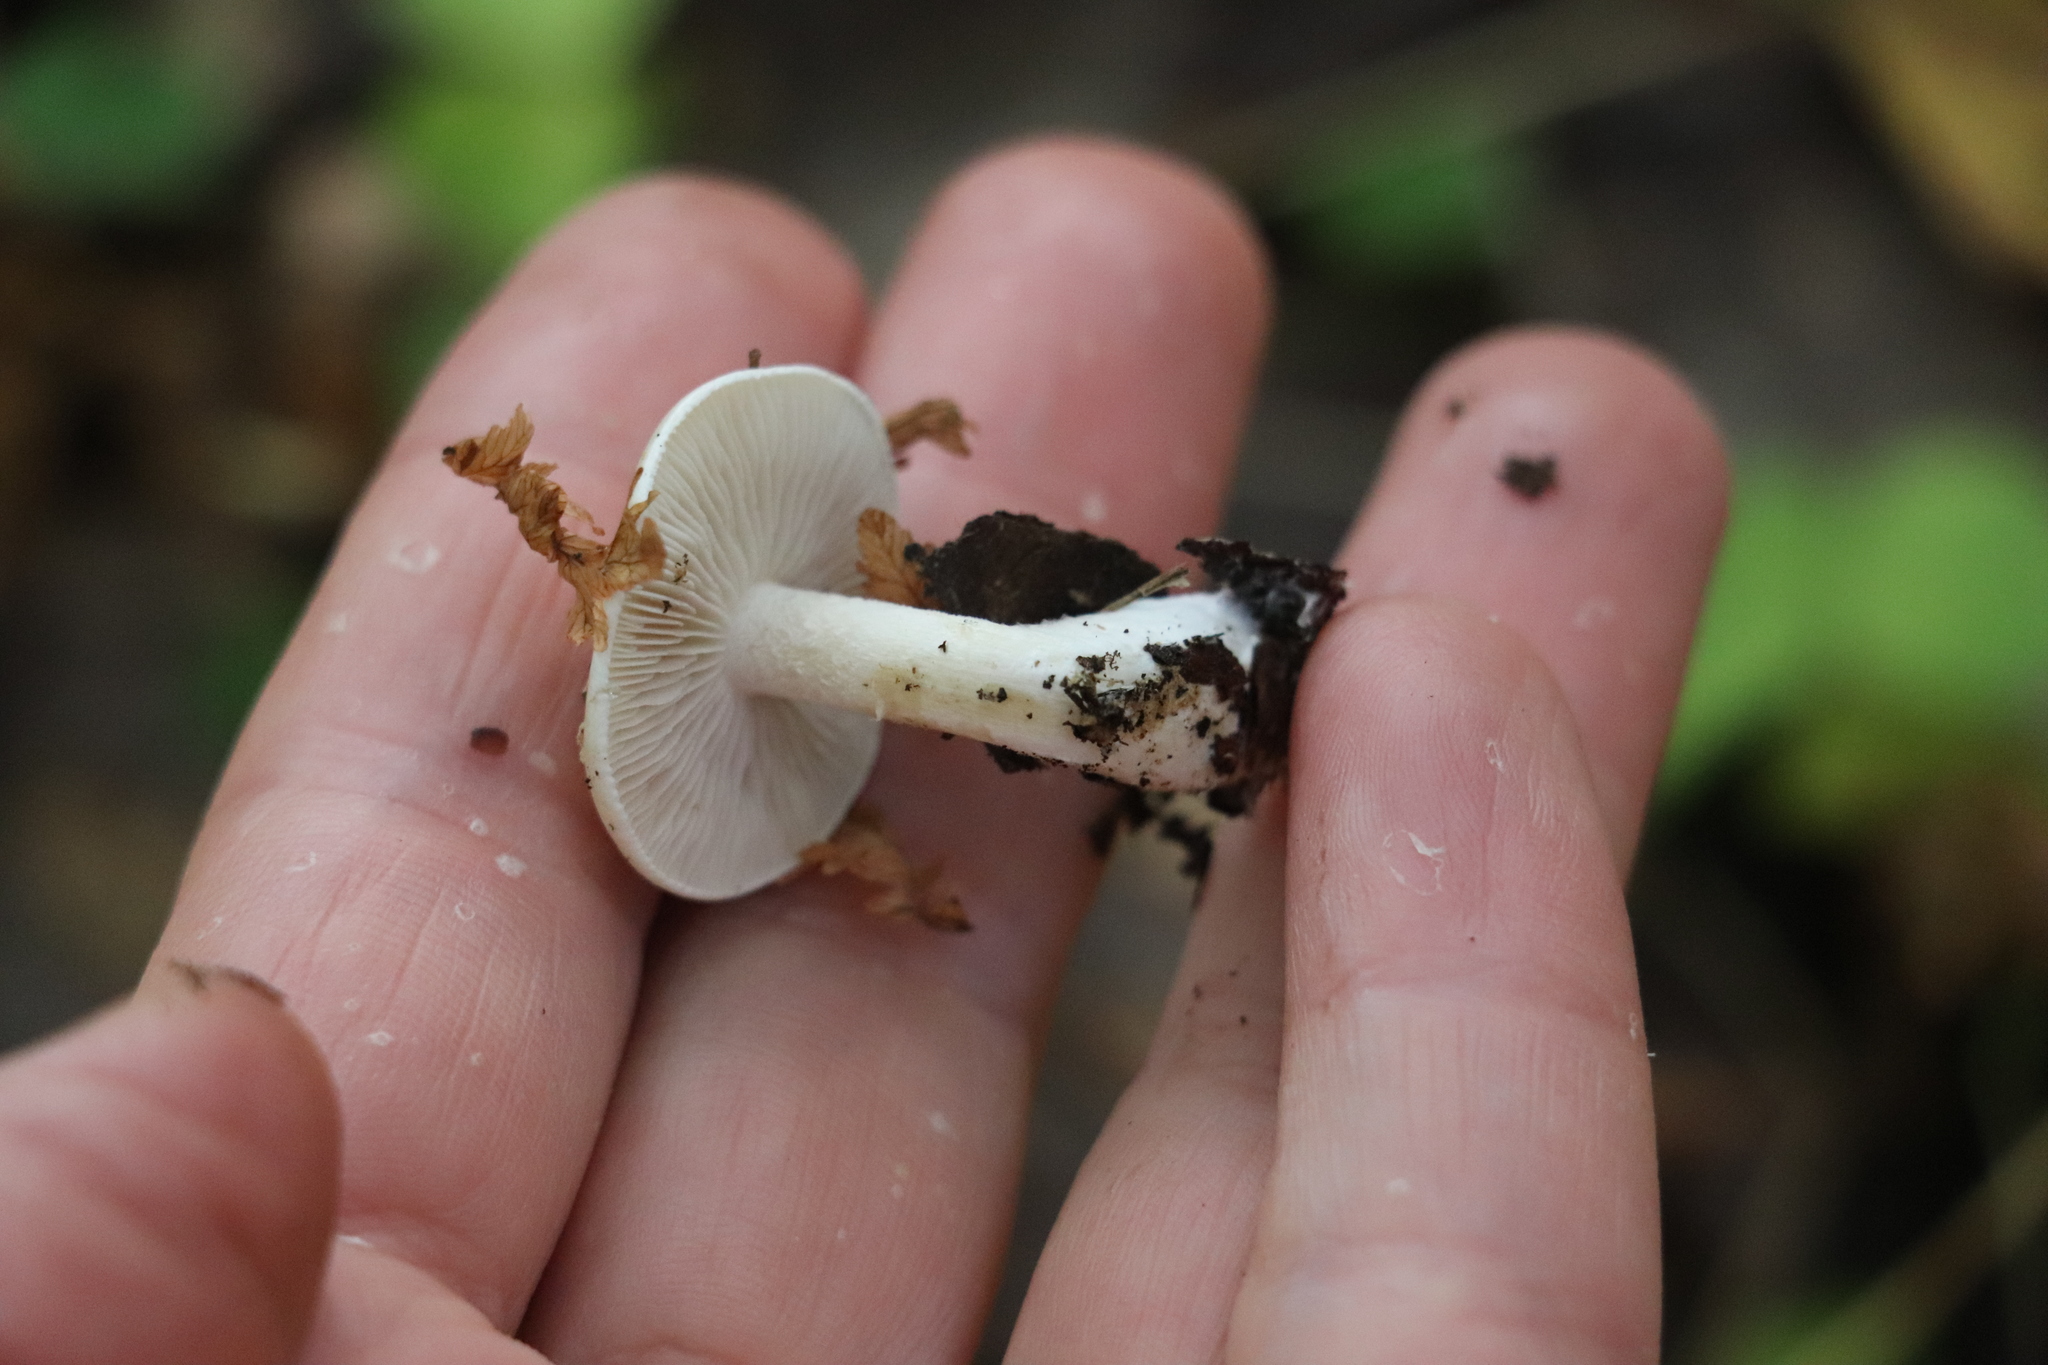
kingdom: Fungi
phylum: Basidiomycota
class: Agaricomycetes
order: Agaricales
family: Hymenogastraceae
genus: Hebeloma
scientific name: Hebeloma leucosarx
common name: Birch poisonpie
